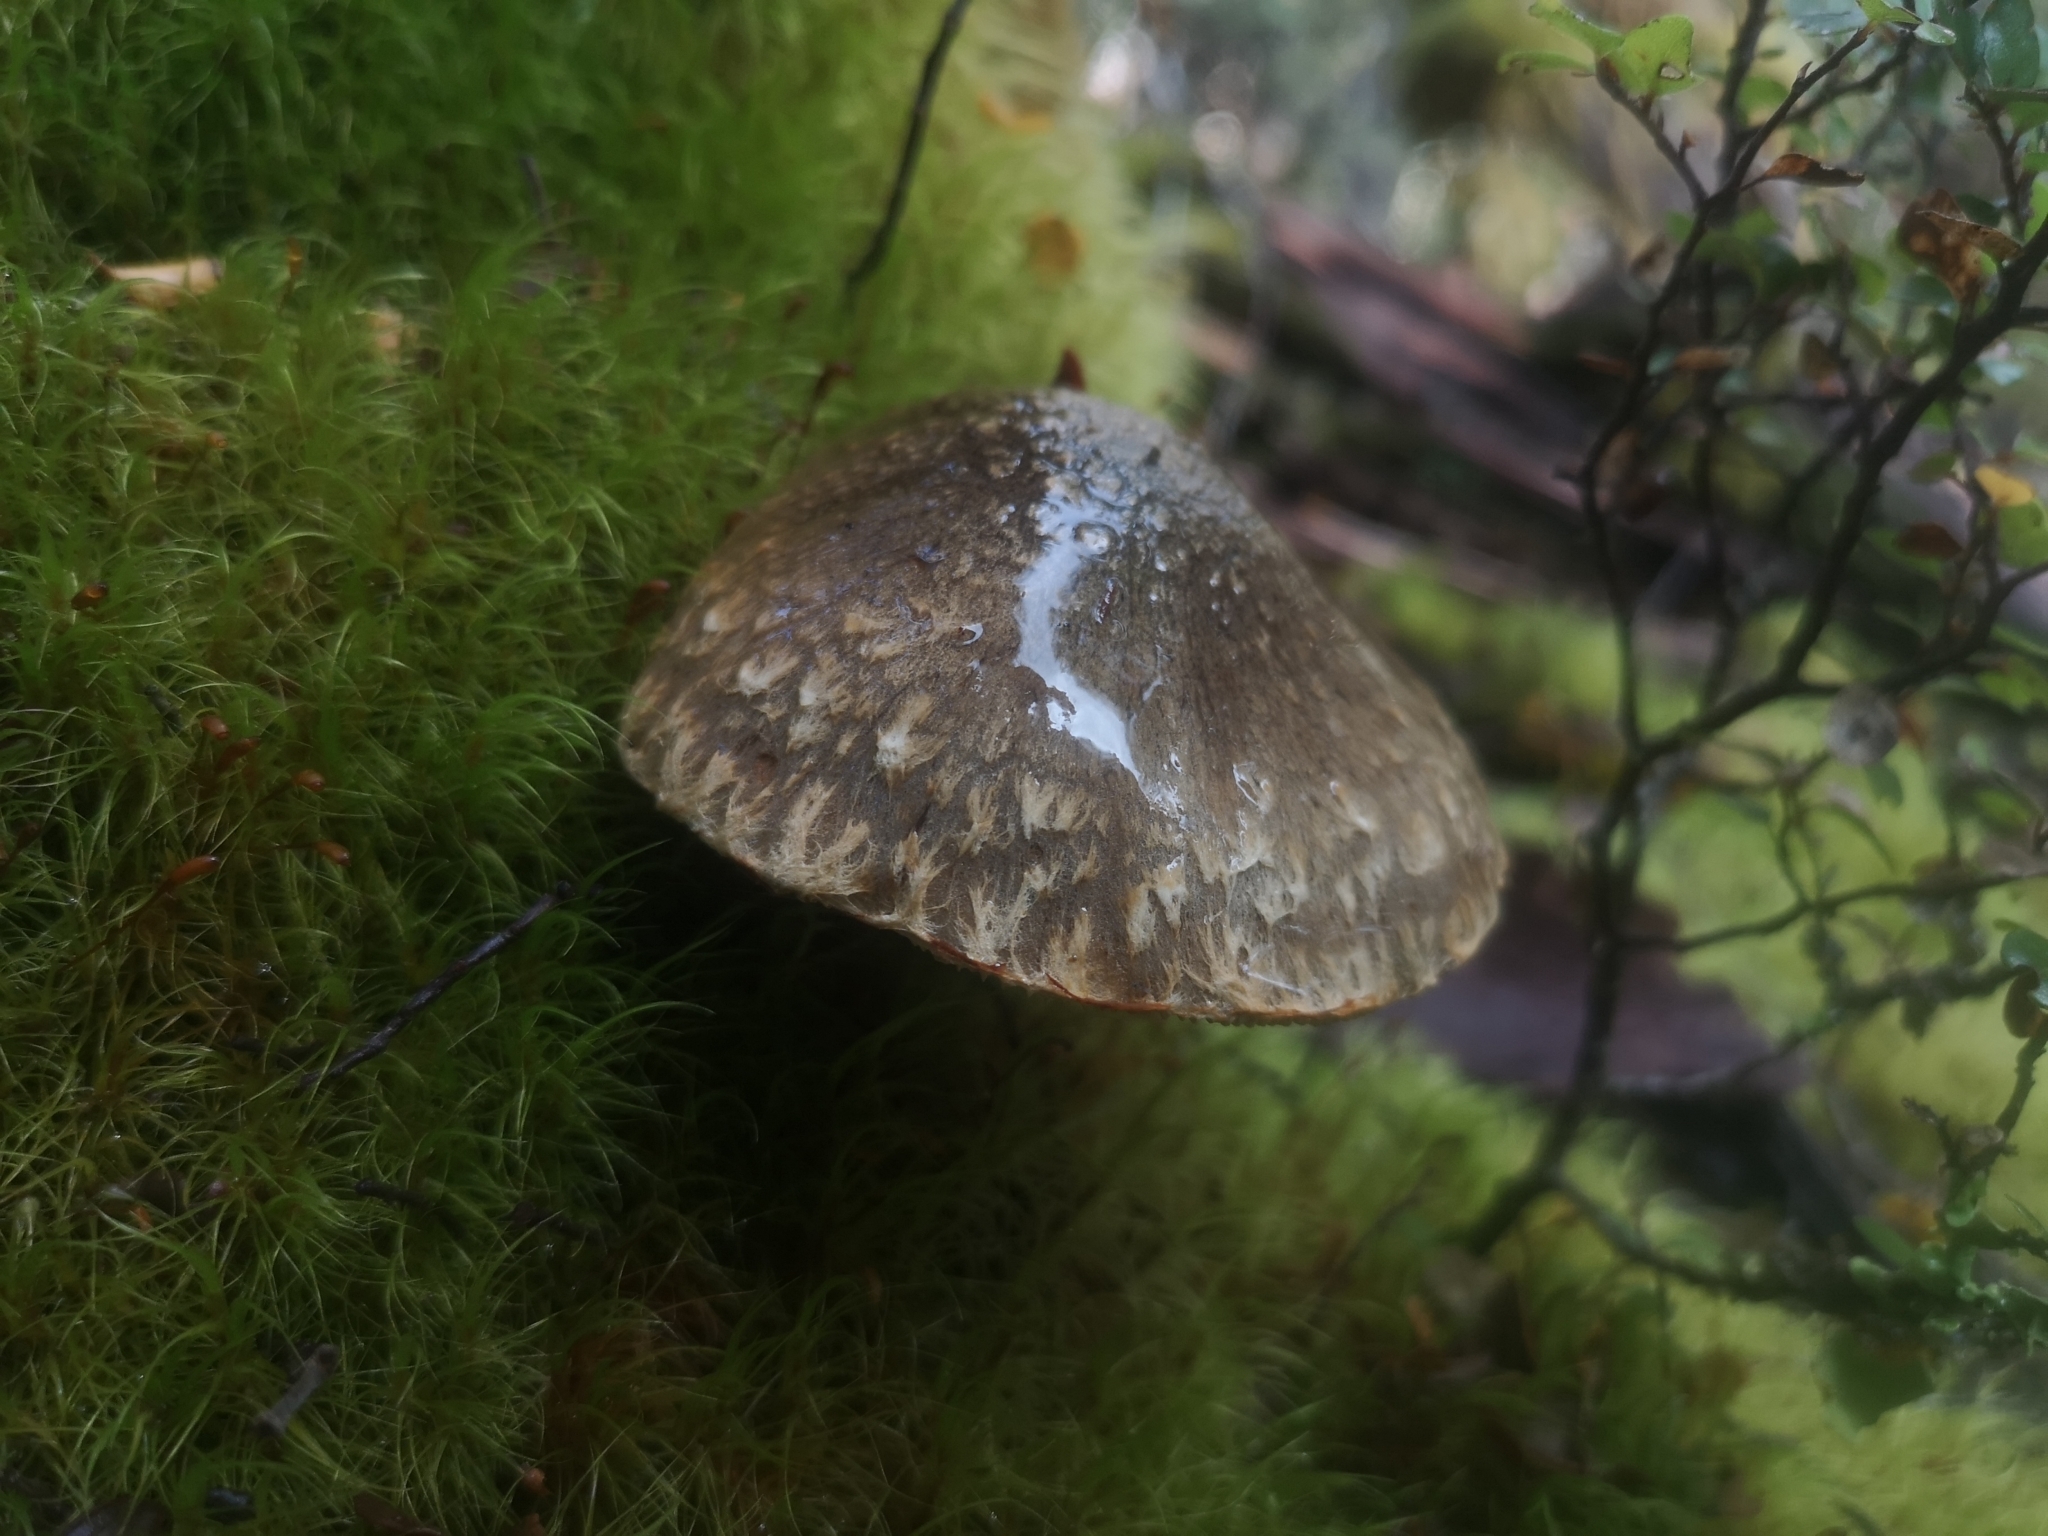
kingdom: Fungi
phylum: Basidiomycota
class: Agaricomycetes
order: Agaricales
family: Strophariaceae
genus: Hypholoma
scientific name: Hypholoma brunneum
